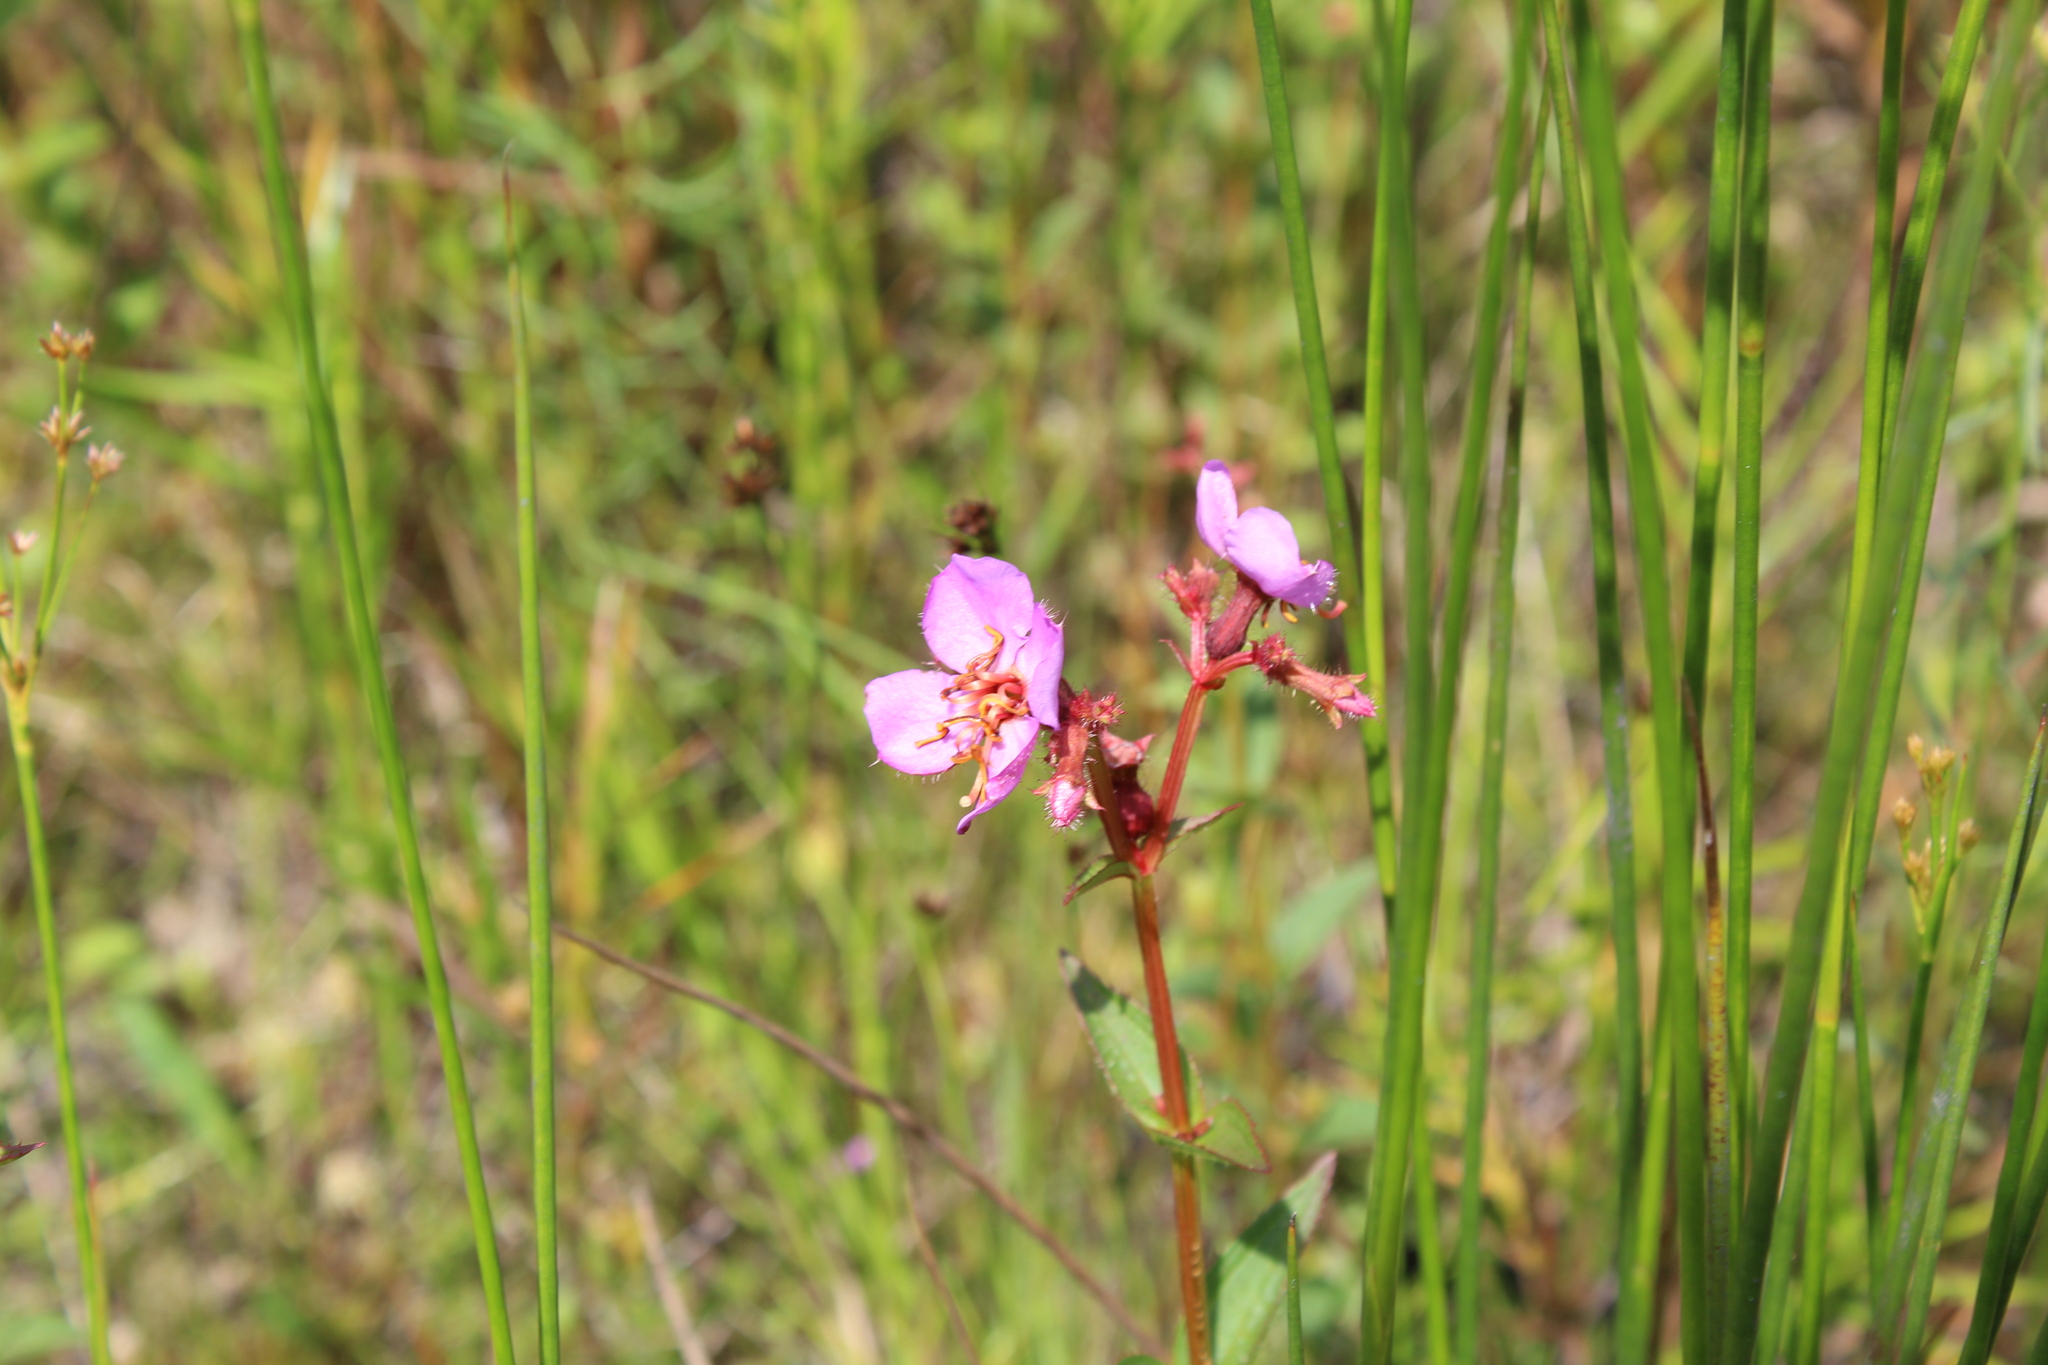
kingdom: Plantae
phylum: Tracheophyta
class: Magnoliopsida
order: Myrtales
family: Melastomataceae
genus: Rhexia
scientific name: Rhexia virginica
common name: Common meadow beauty
